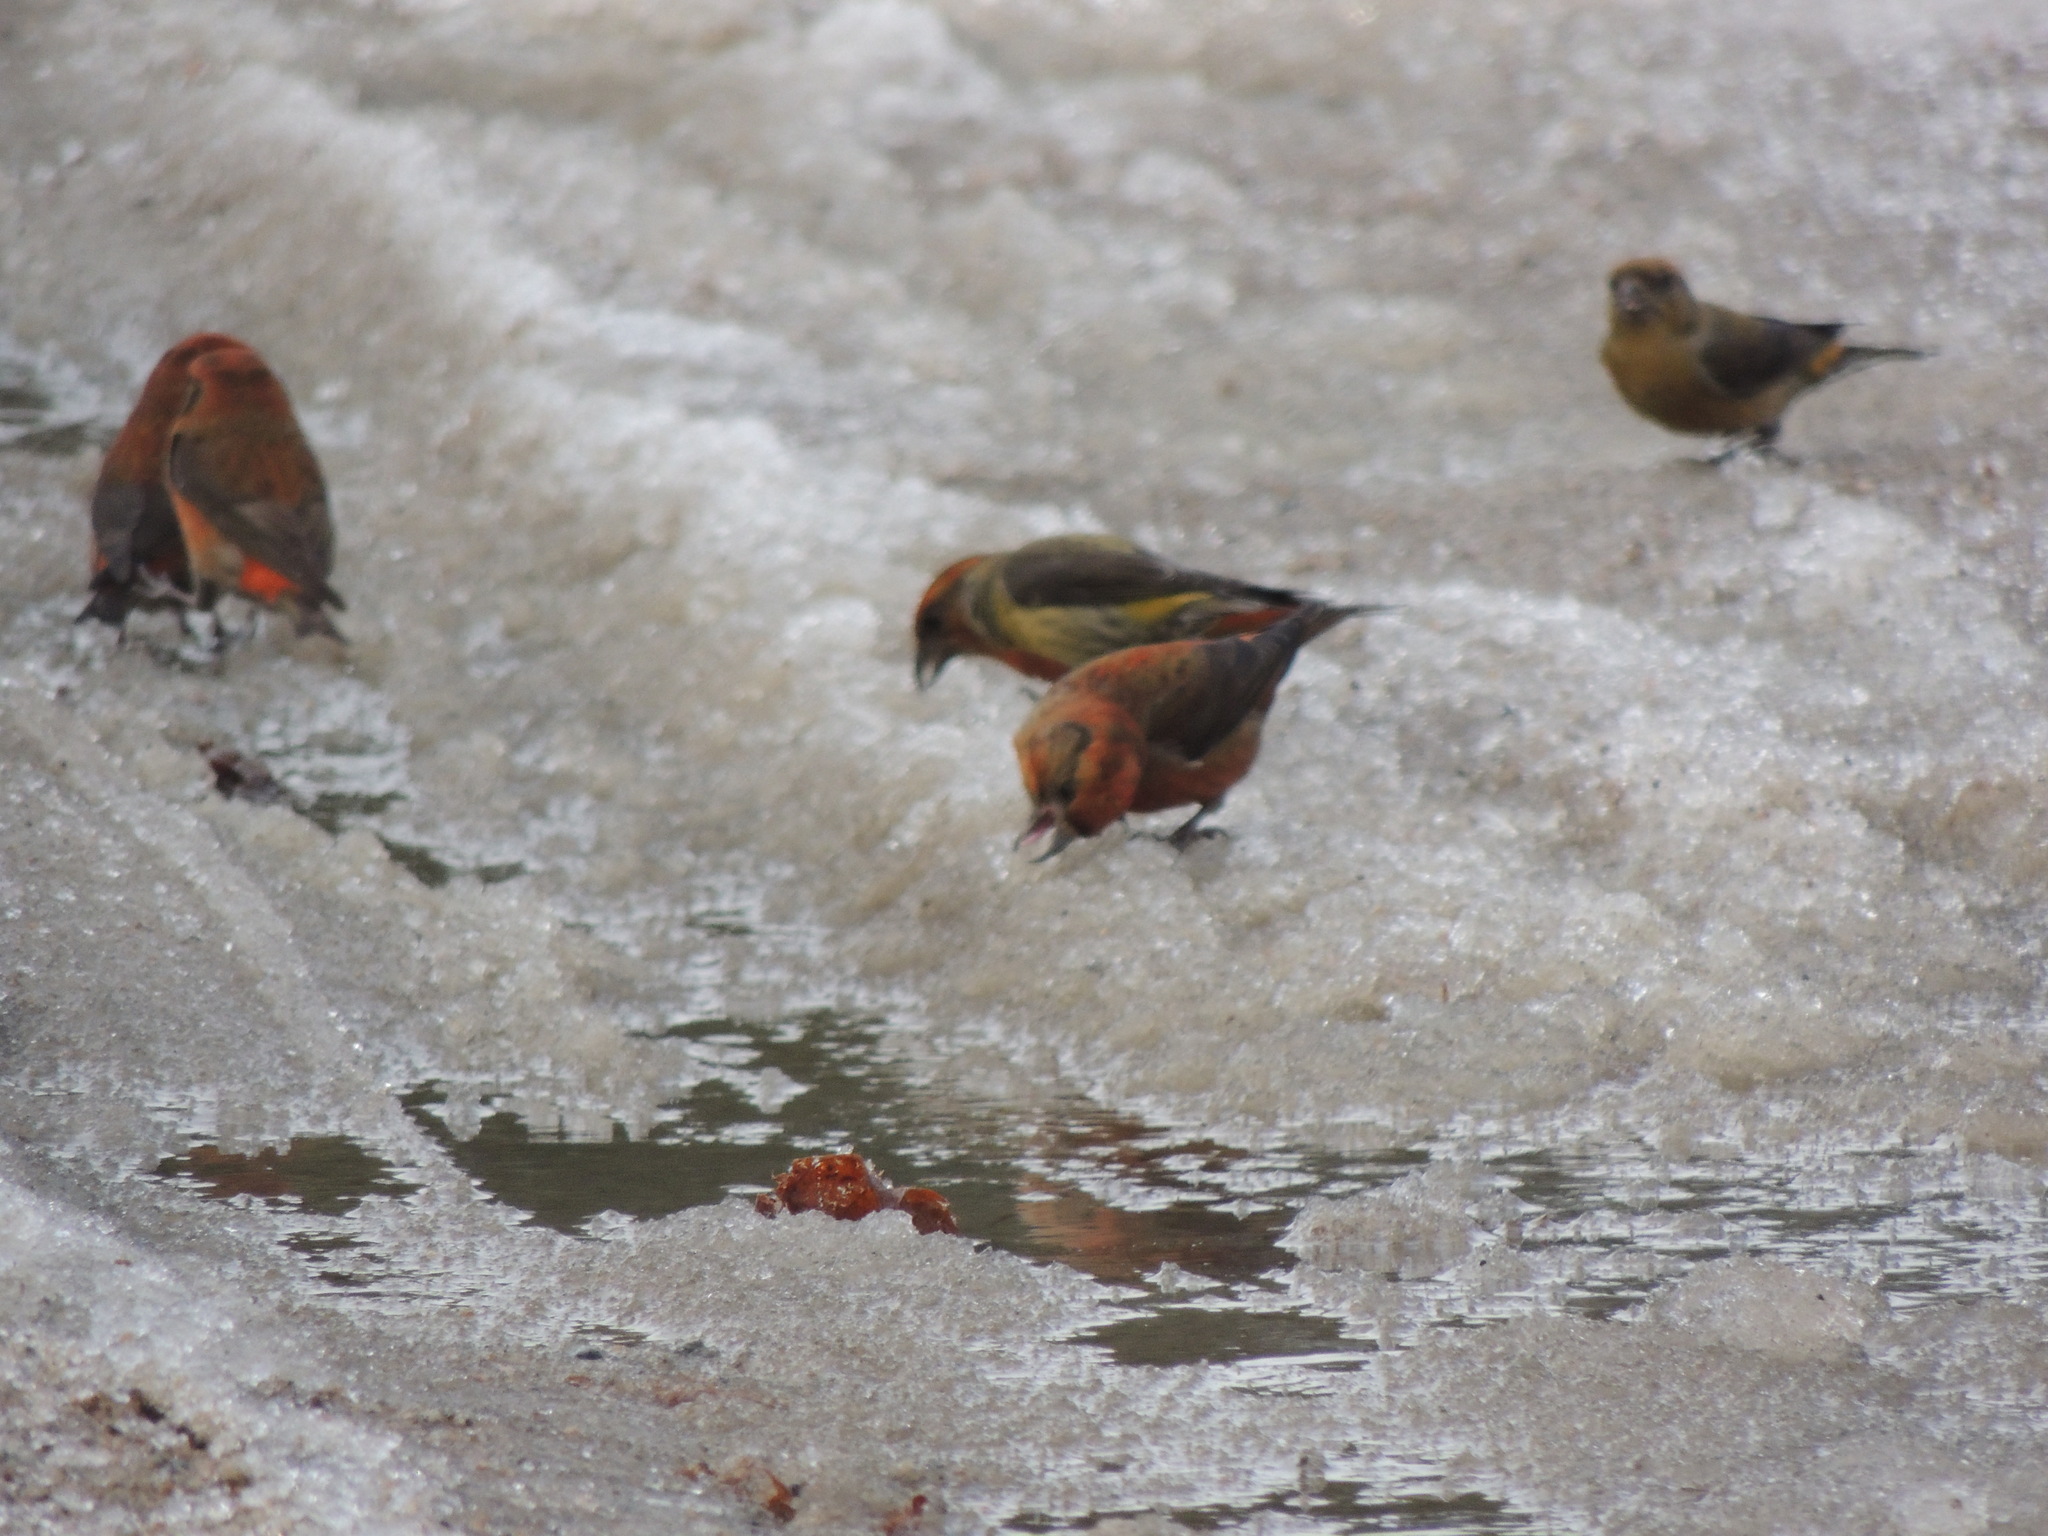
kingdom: Animalia
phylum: Chordata
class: Aves
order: Passeriformes
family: Fringillidae
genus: Loxia
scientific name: Loxia curvirostra
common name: Red crossbill
